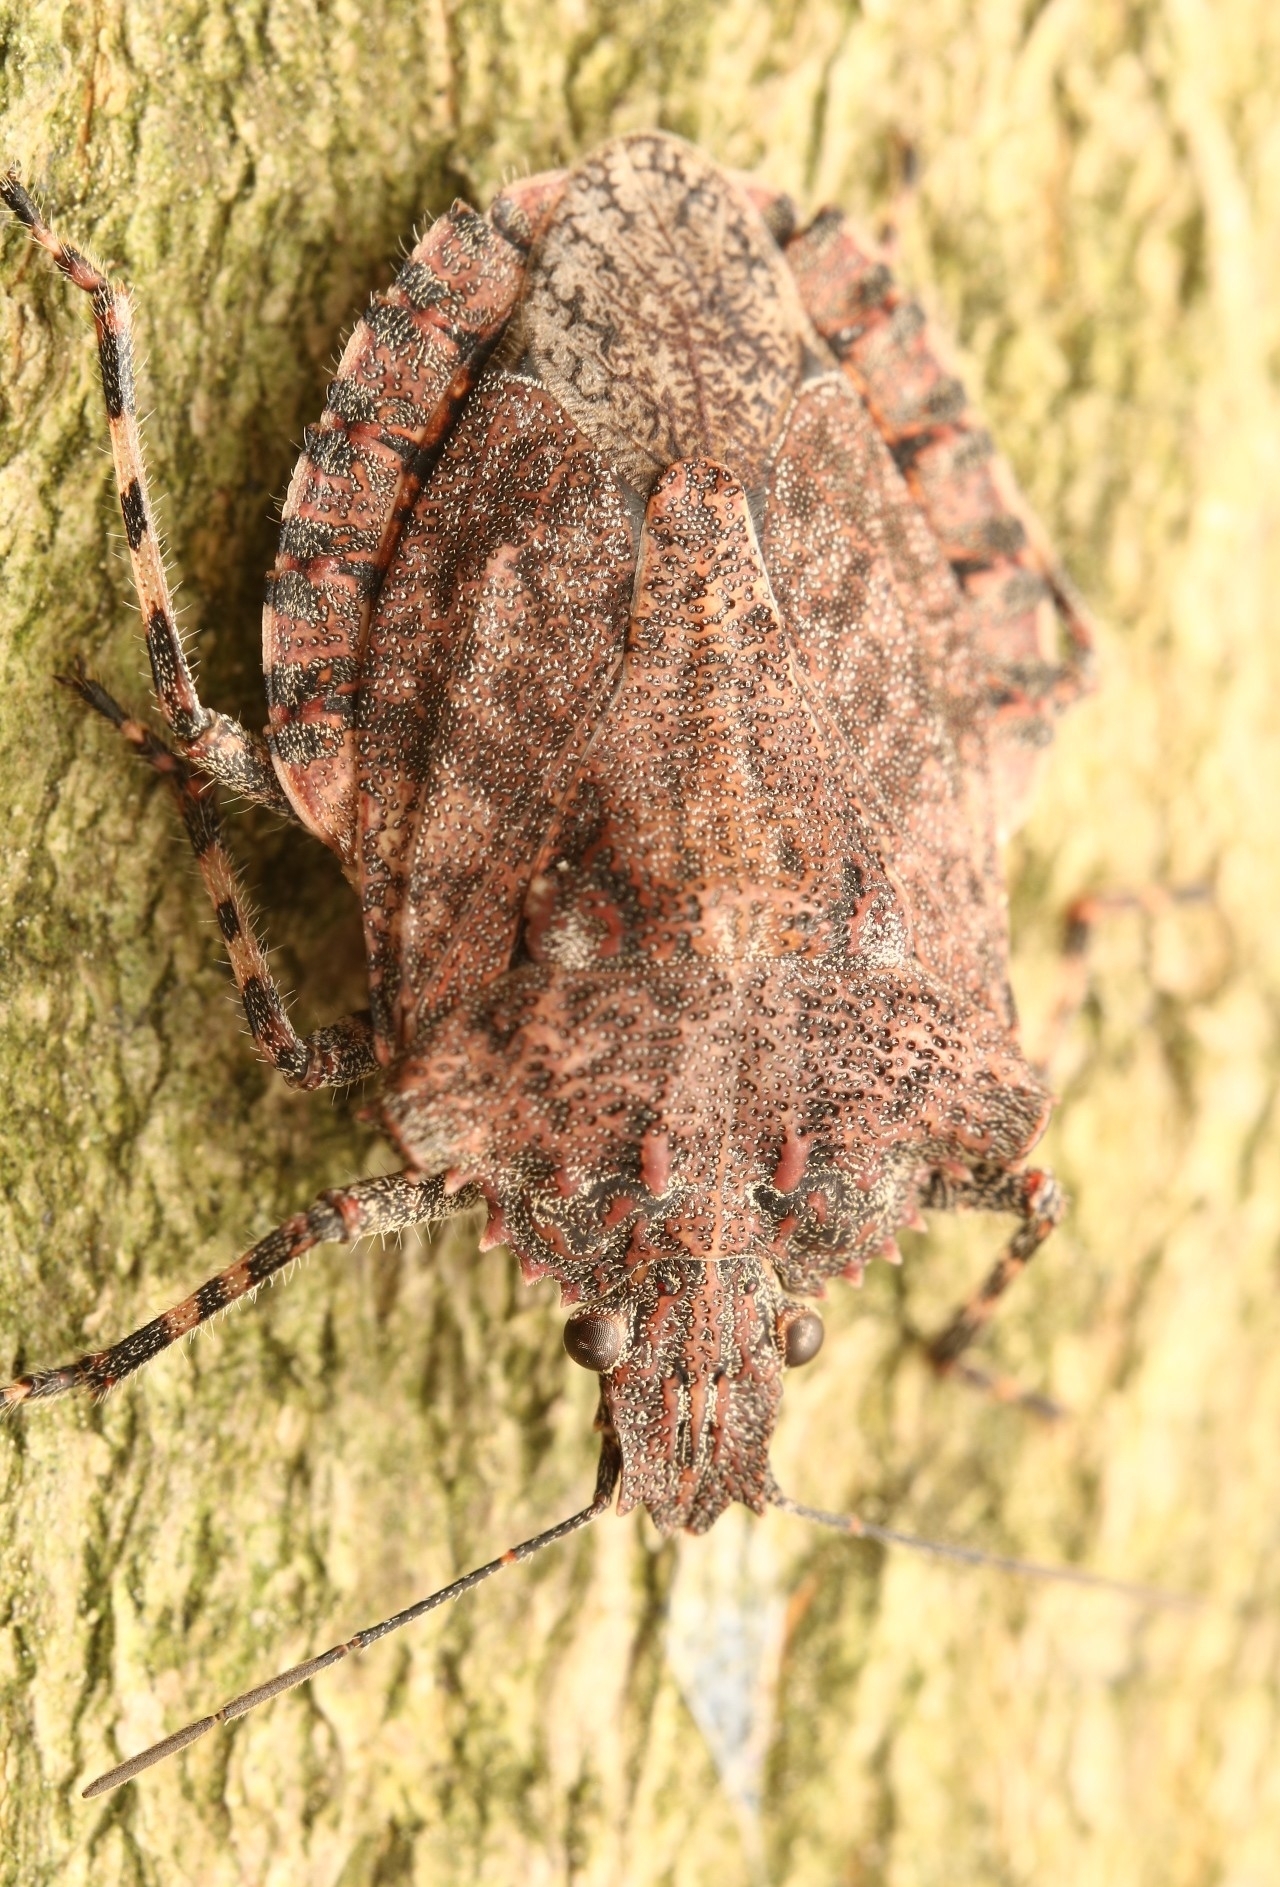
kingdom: Animalia
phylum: Arthropoda
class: Insecta
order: Hemiptera
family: Pentatomidae
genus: Brochymena
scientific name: Brochymena arborea
